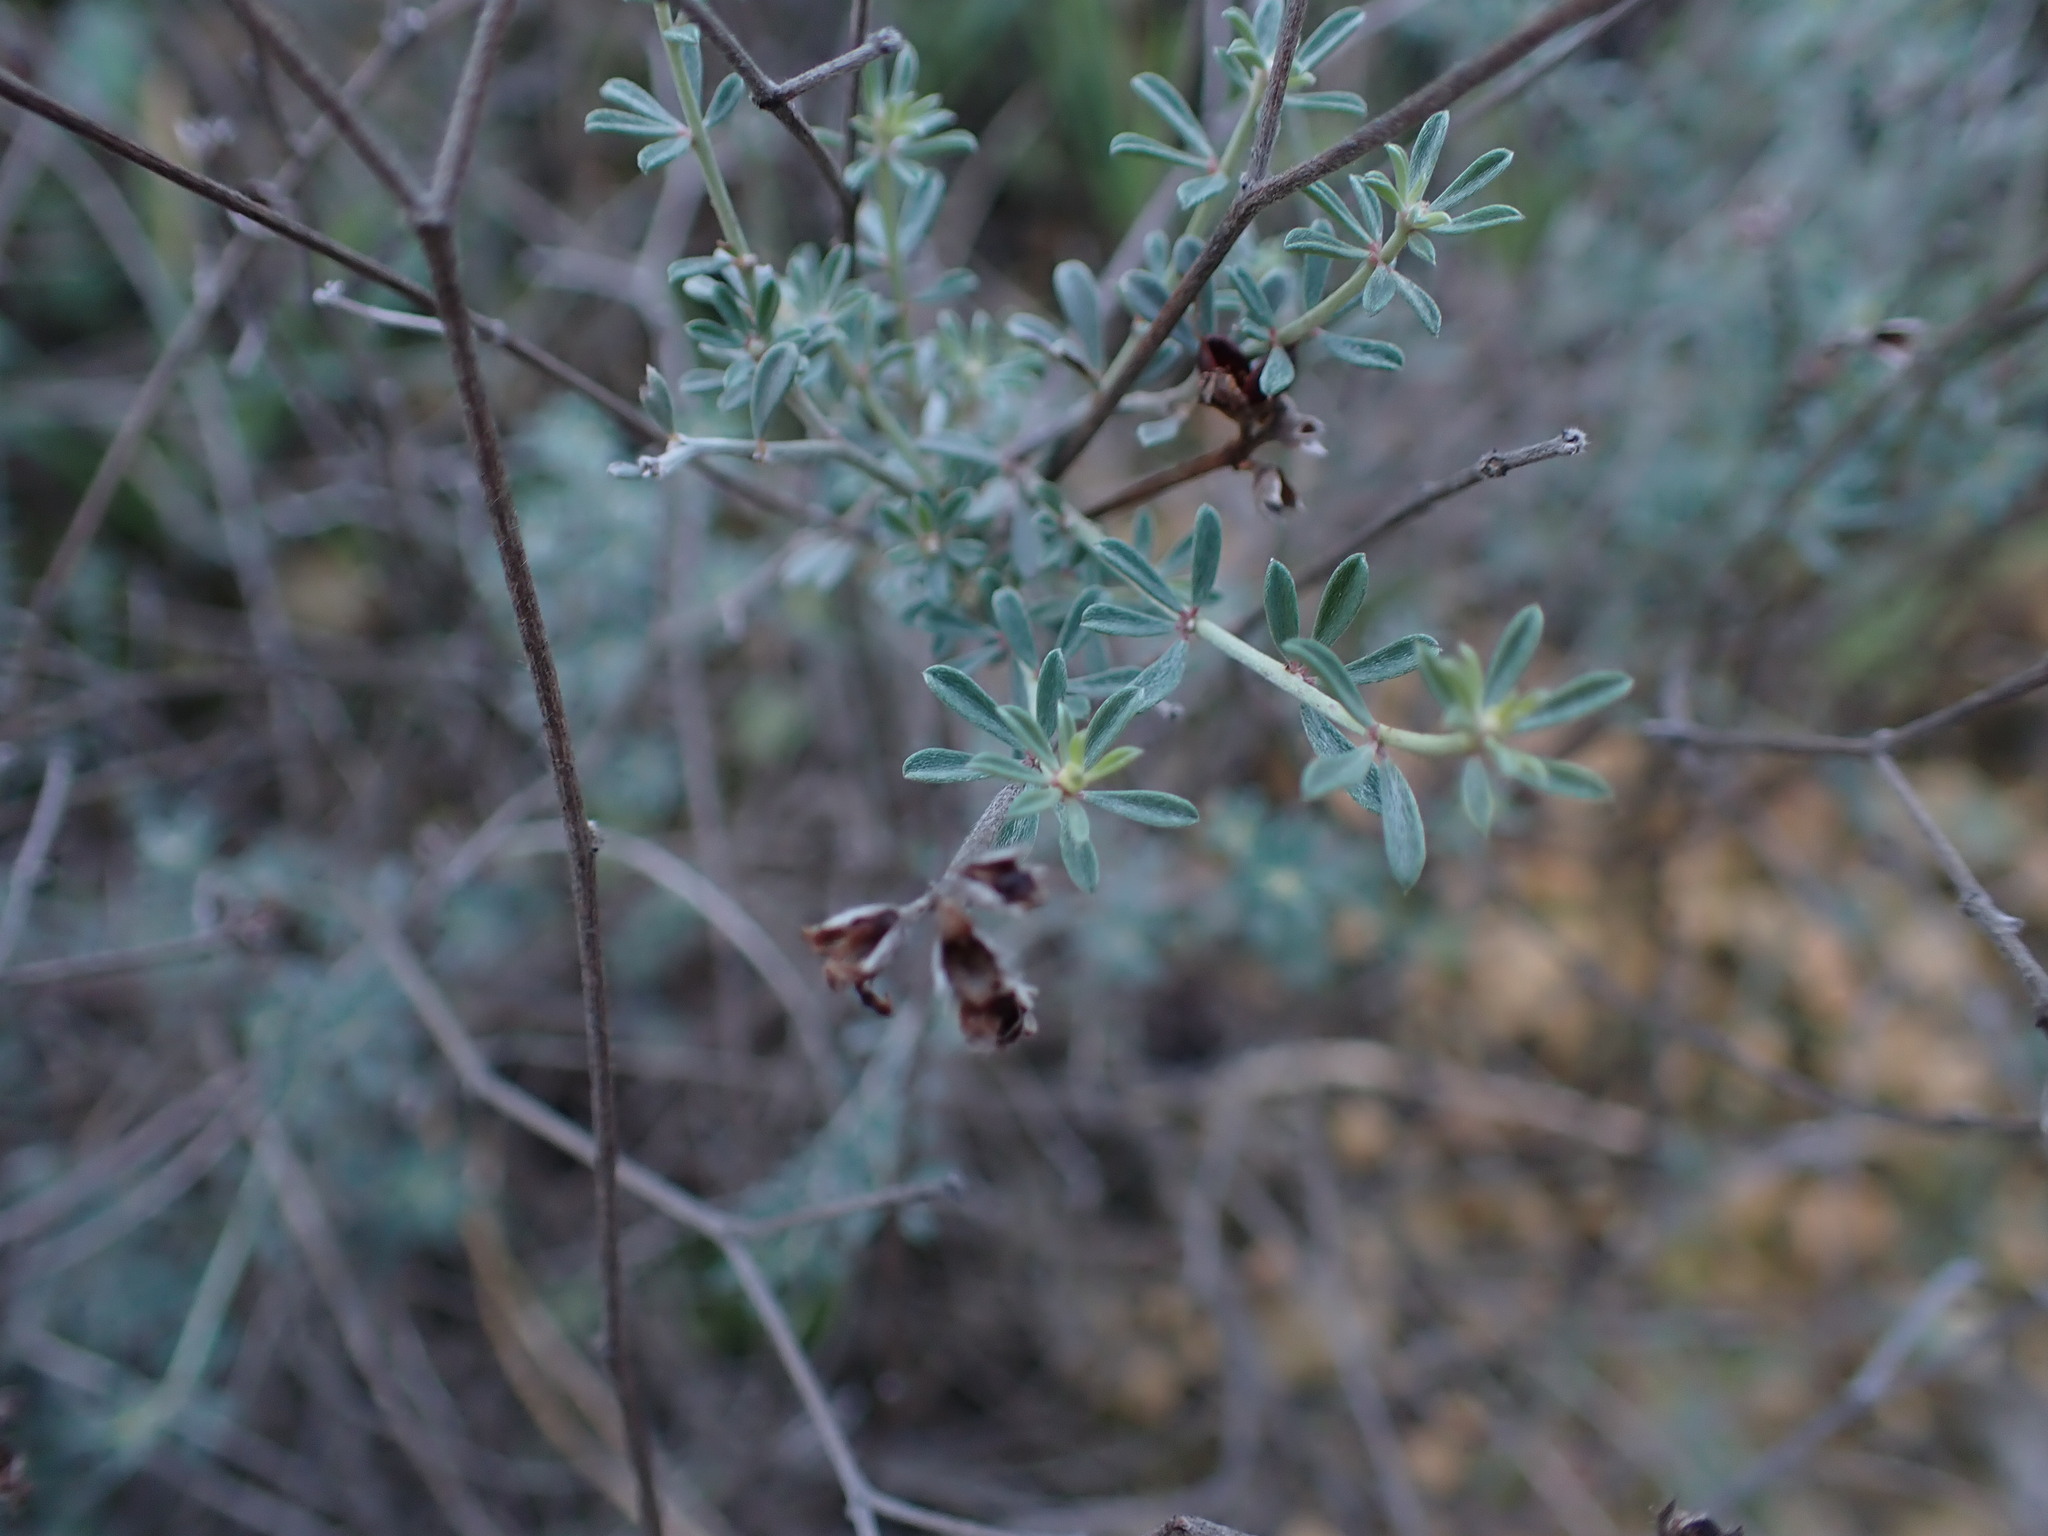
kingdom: Plantae
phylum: Tracheophyta
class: Magnoliopsida
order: Fabales
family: Fabaceae
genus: Lotus
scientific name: Lotus dorycnium
